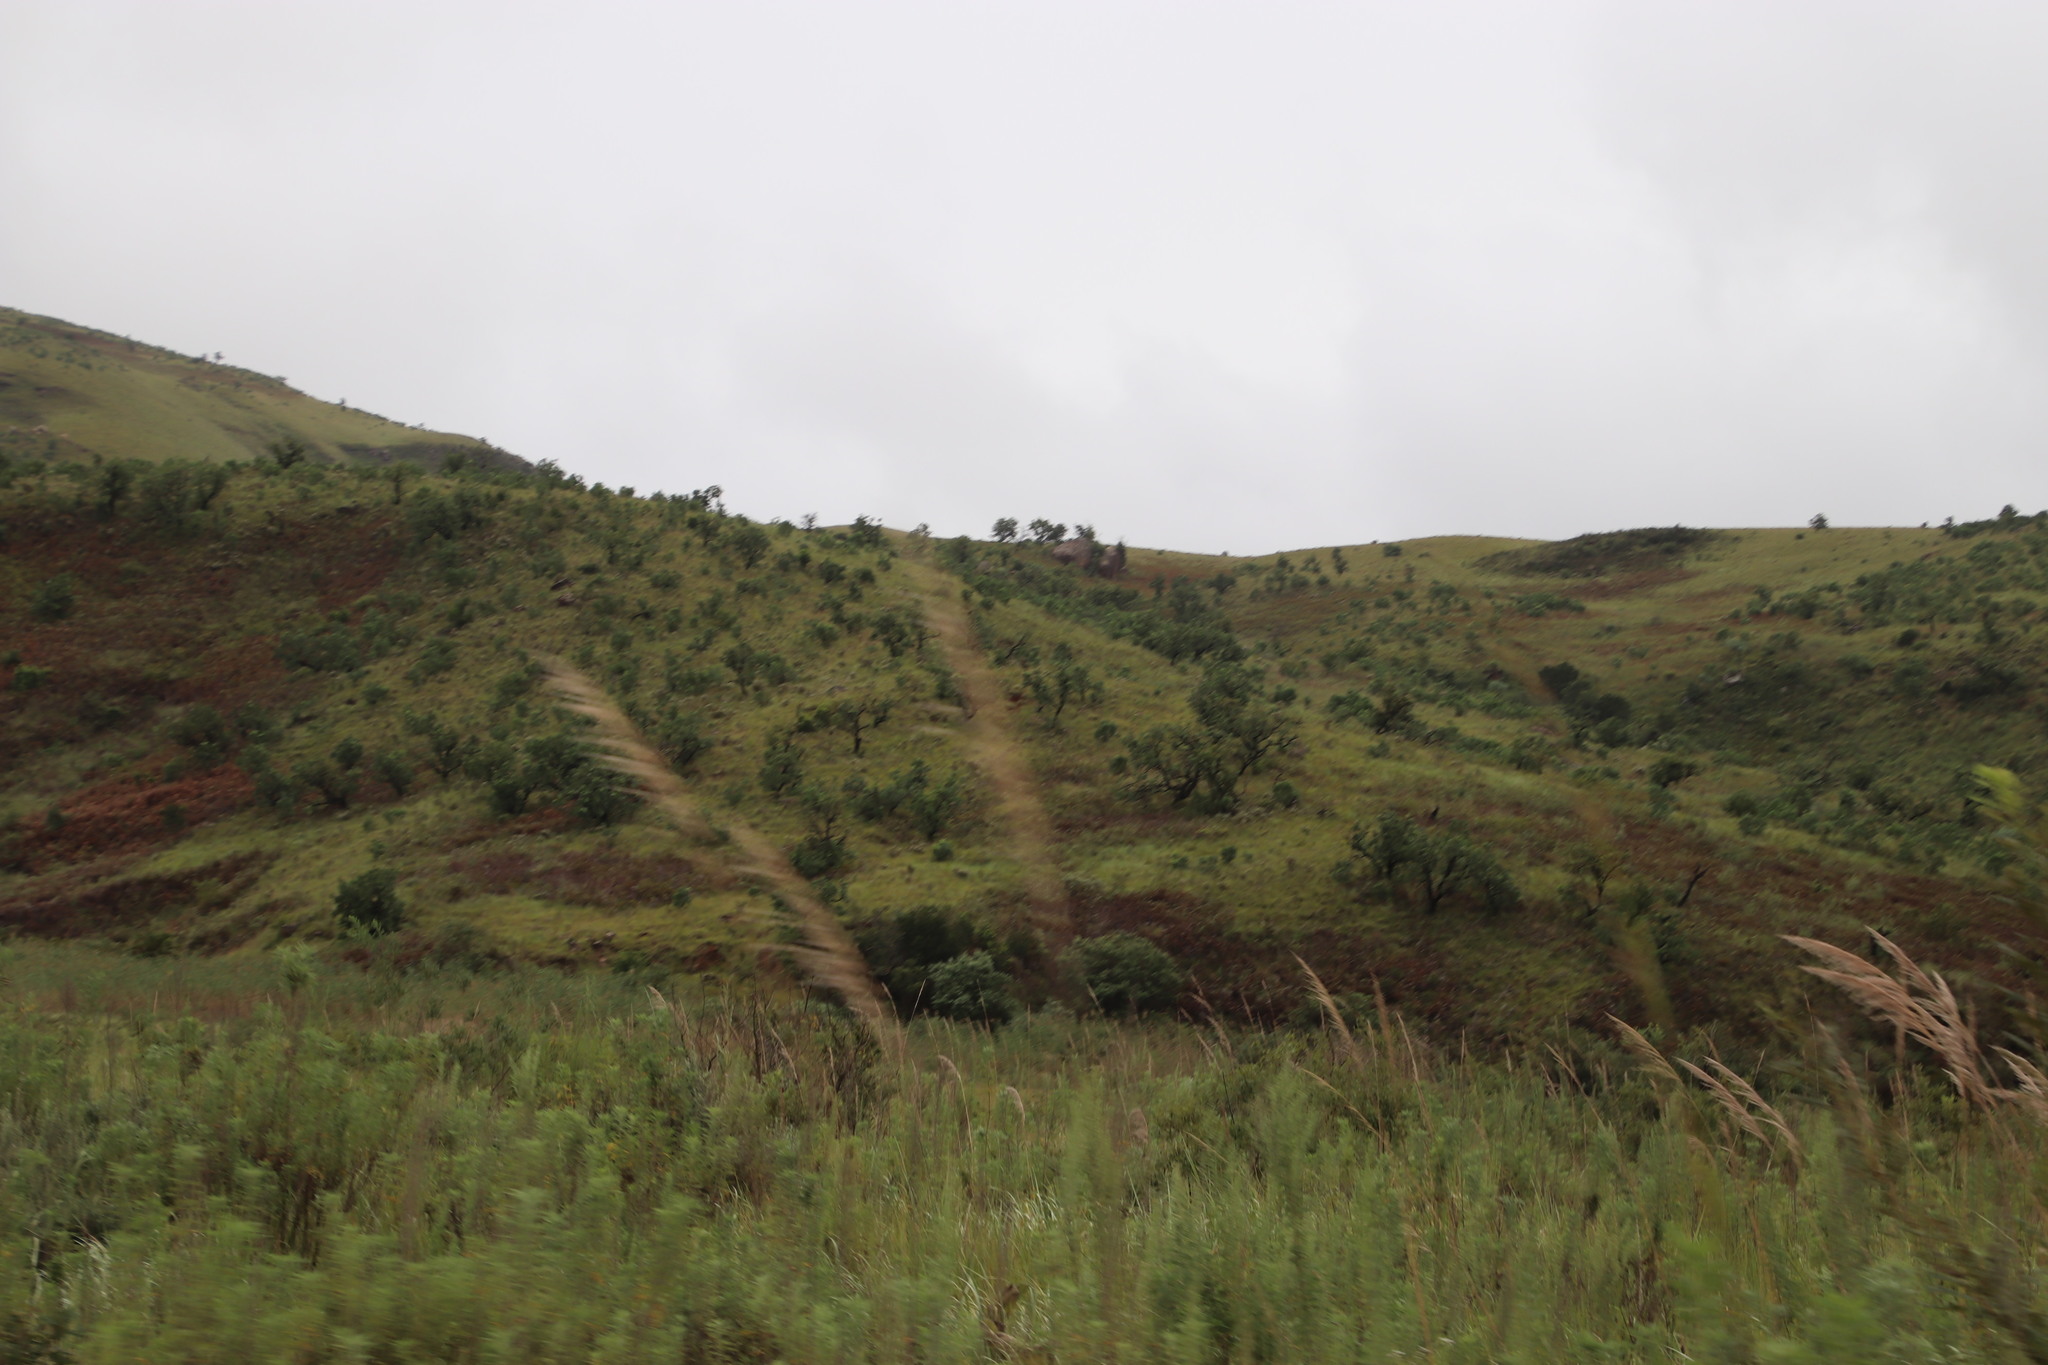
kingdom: Plantae
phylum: Tracheophyta
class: Magnoliopsida
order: Proteales
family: Proteaceae
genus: Protea
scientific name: Protea caffra
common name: Common sugarbush
